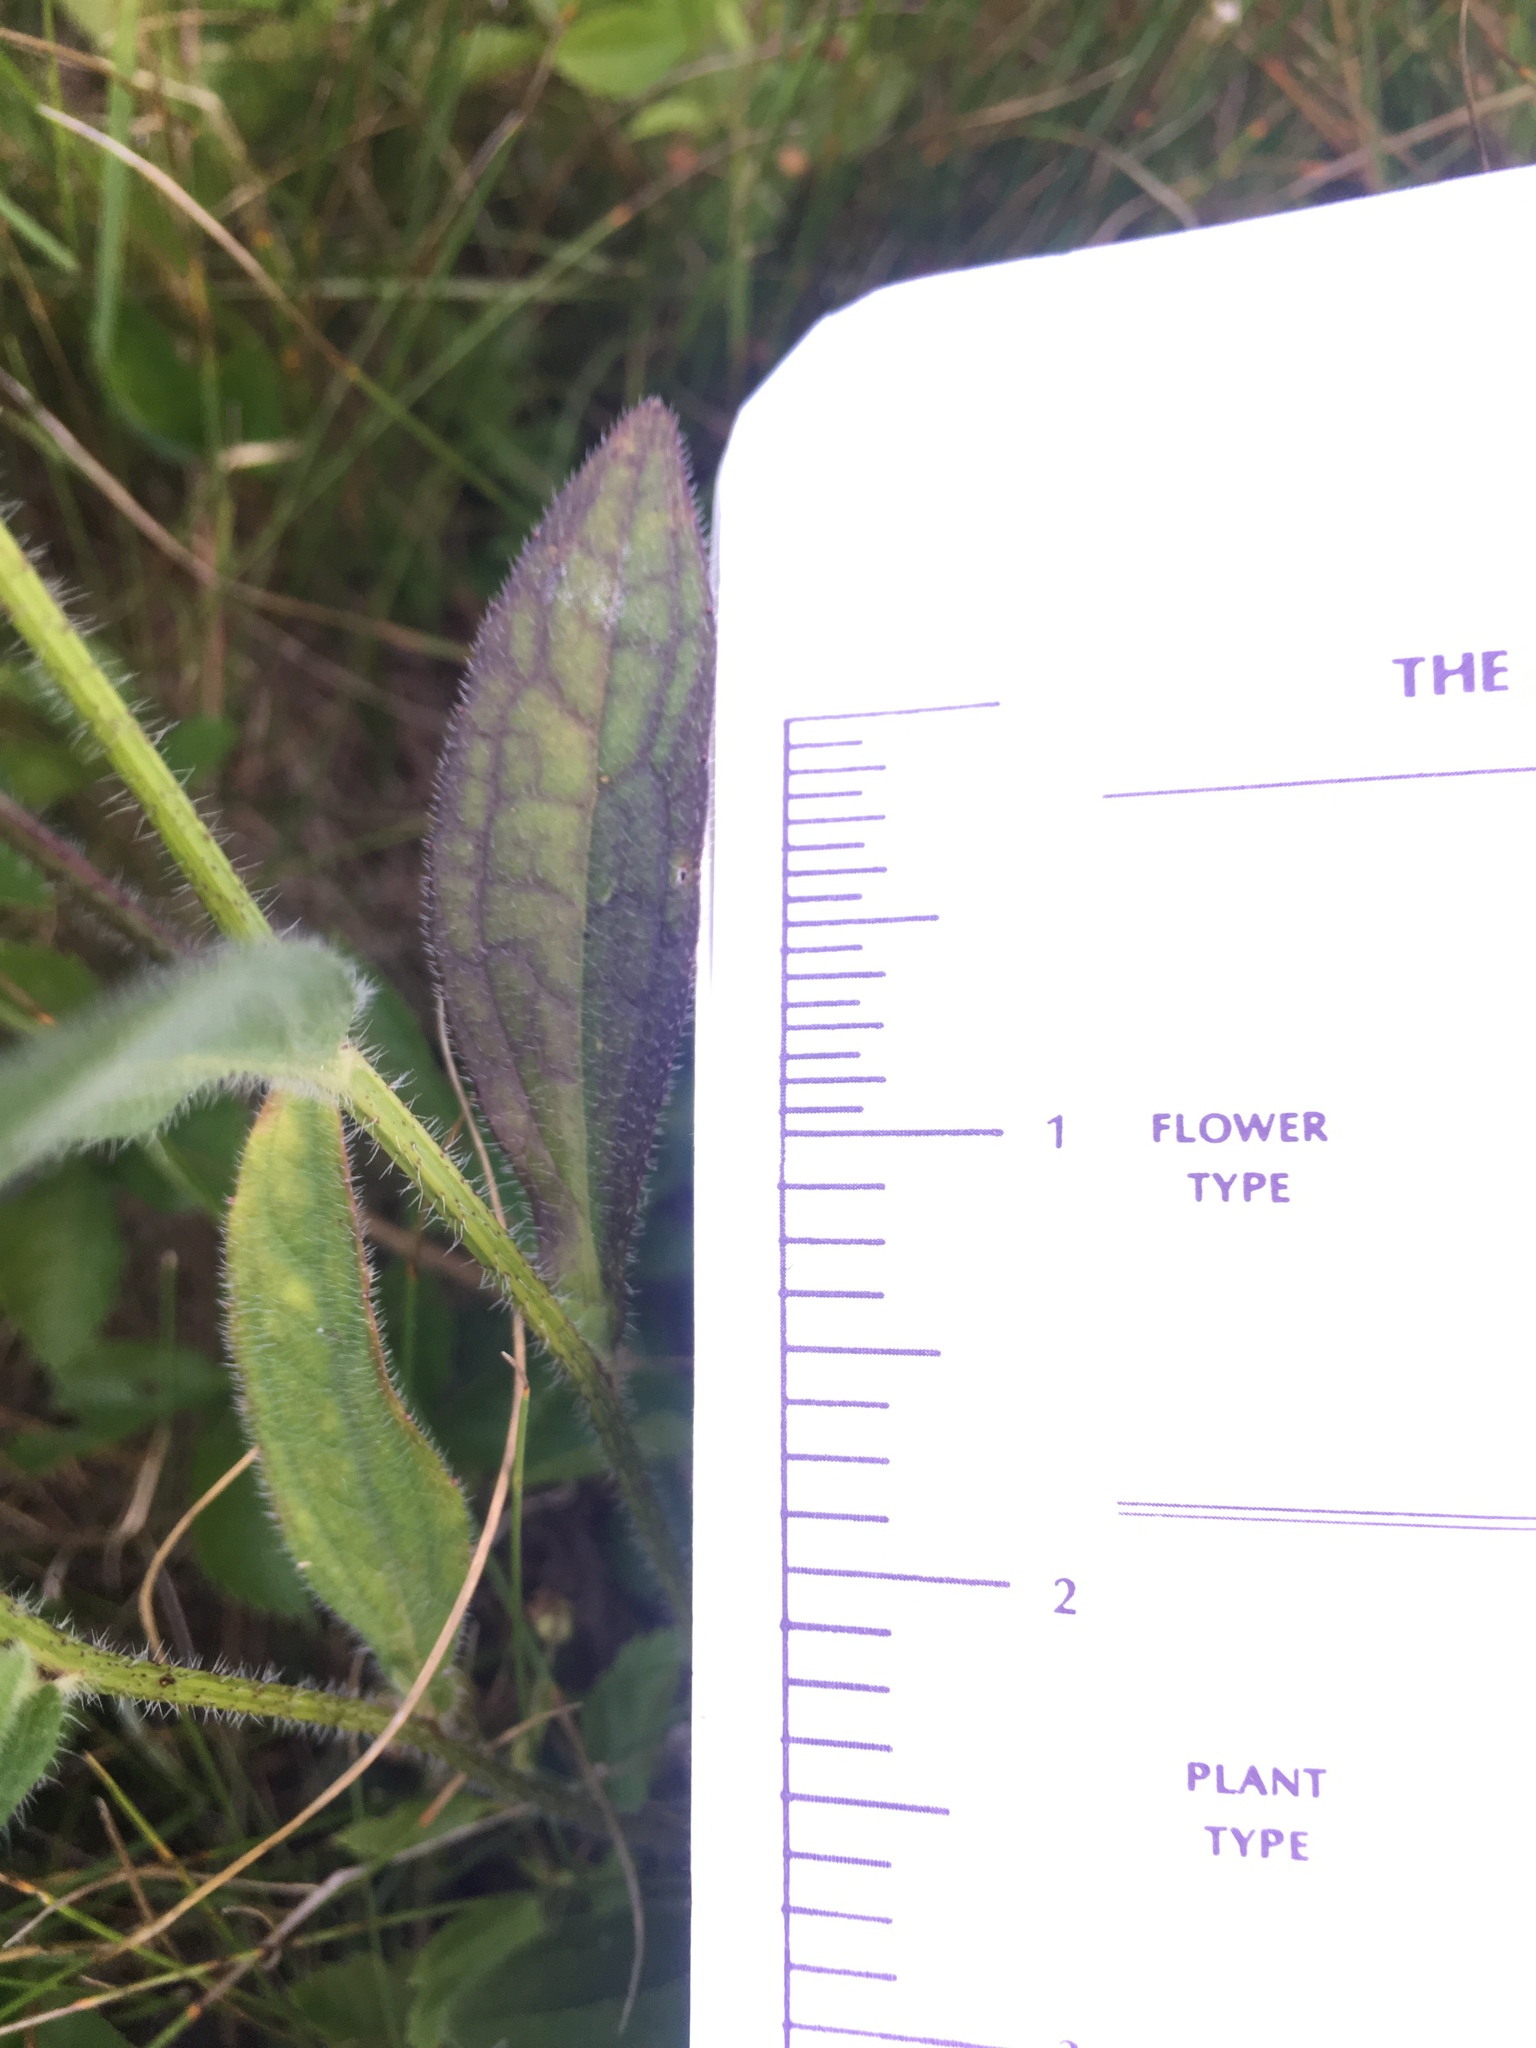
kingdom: Plantae
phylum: Tracheophyta
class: Magnoliopsida
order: Asterales
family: Asteraceae
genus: Rudbeckia
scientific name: Rudbeckia hirta
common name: Black-eyed-susan
